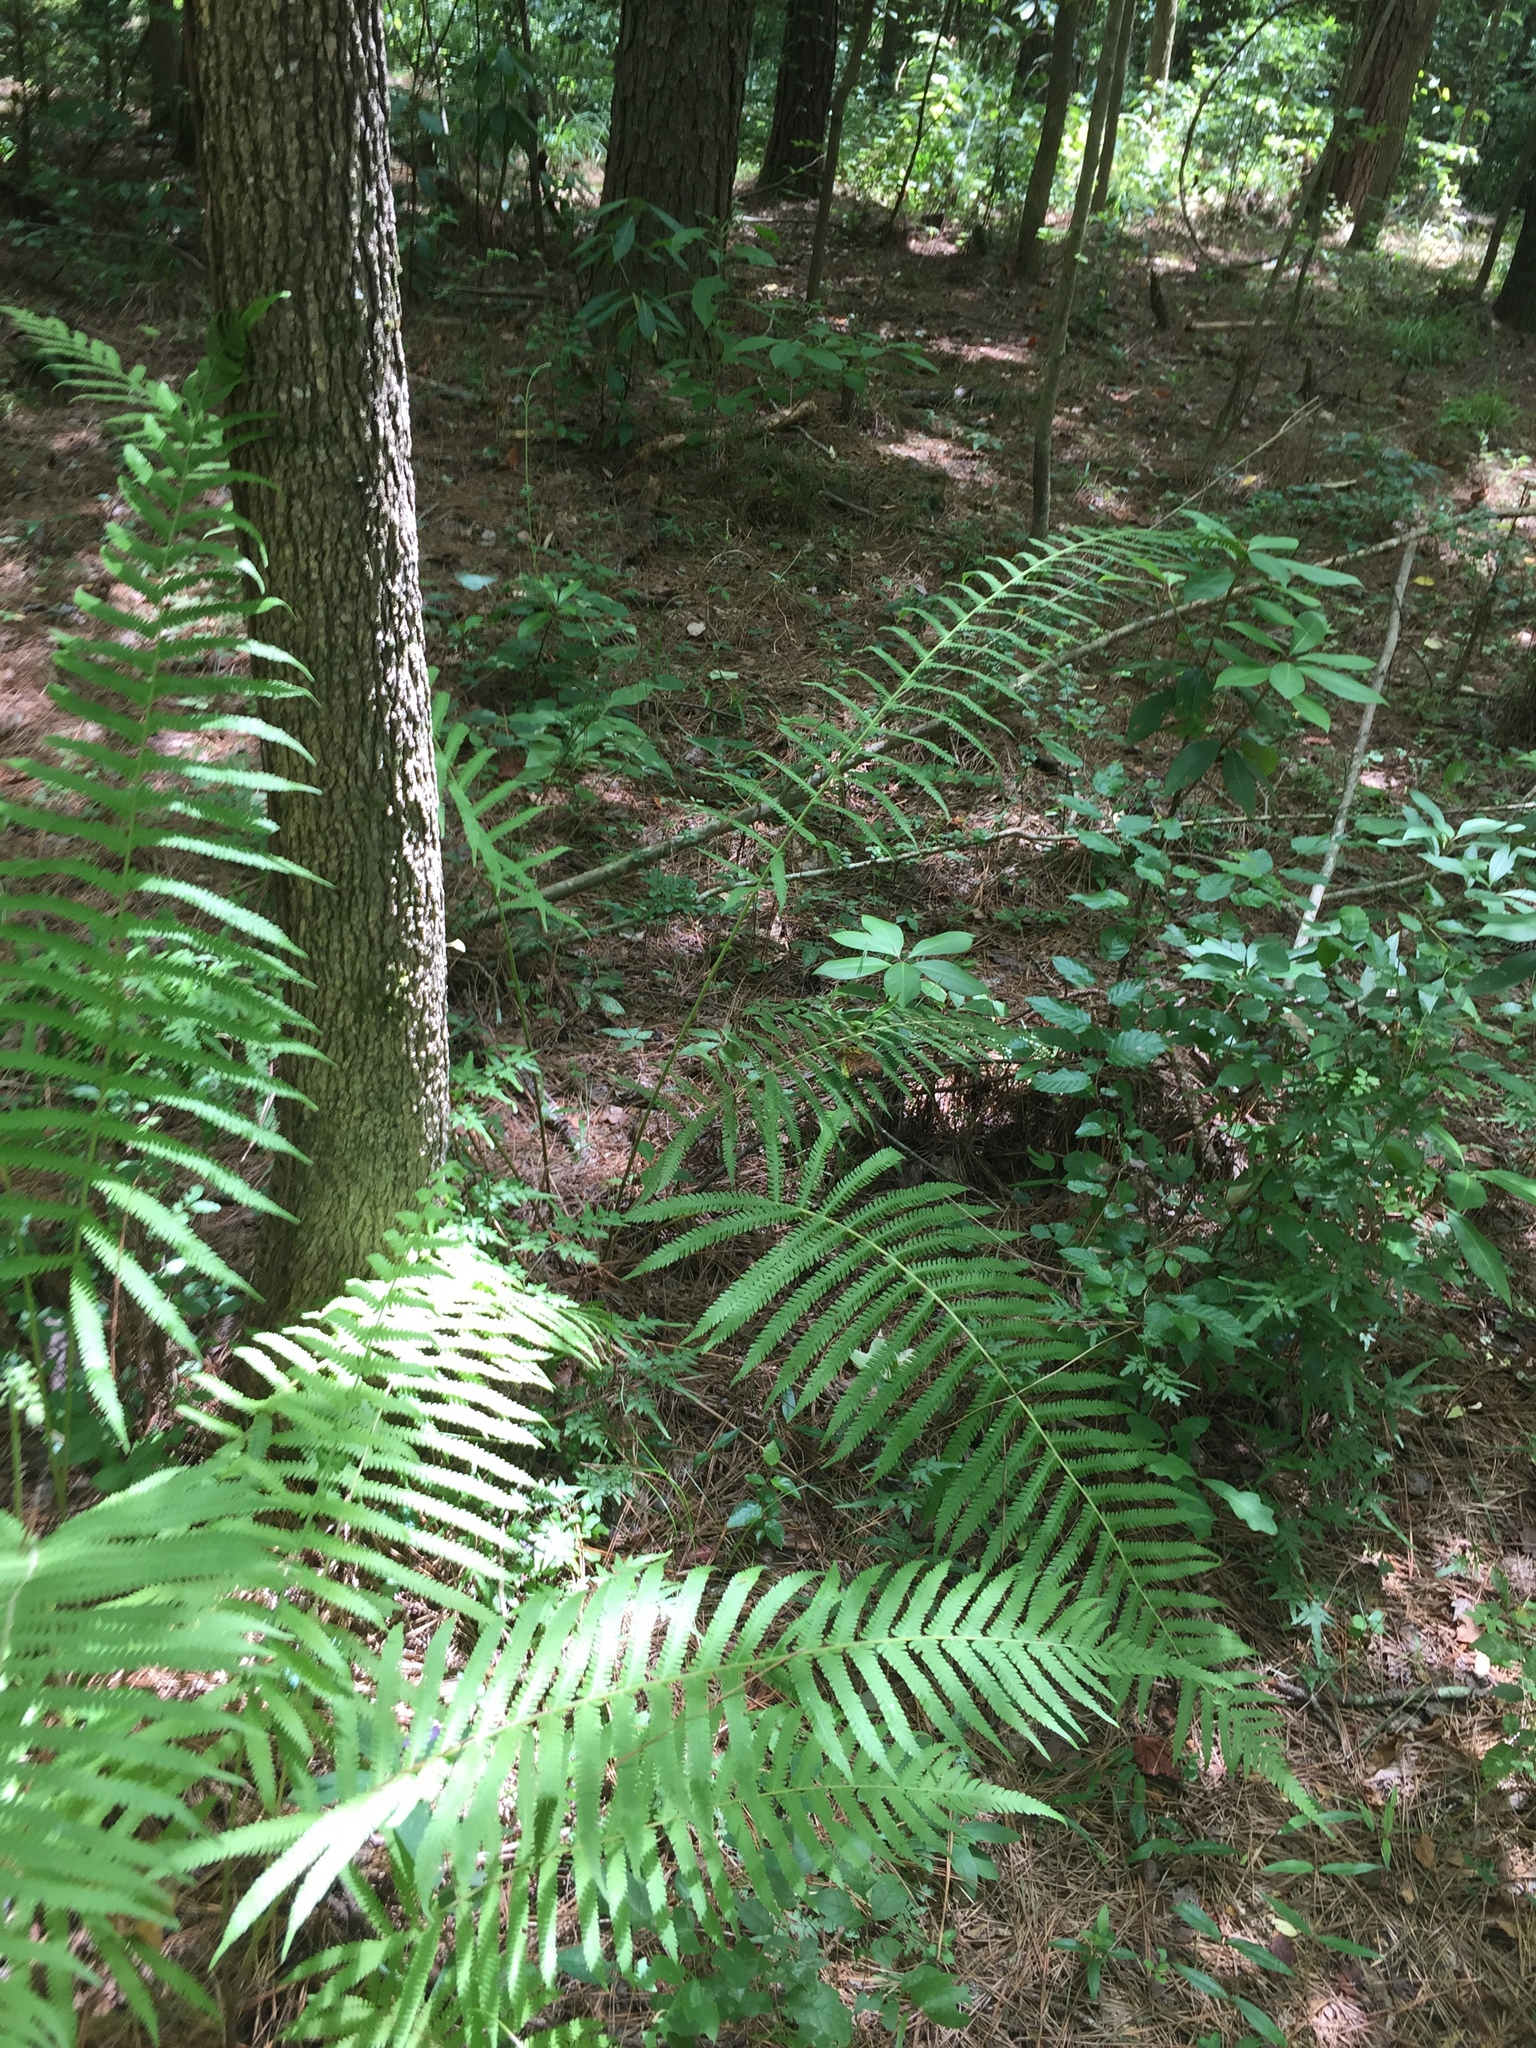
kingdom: Plantae
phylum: Tracheophyta
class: Polypodiopsida
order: Polypodiales
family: Thelypteridaceae
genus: Pelazoneuron
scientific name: Pelazoneuron kunthii
